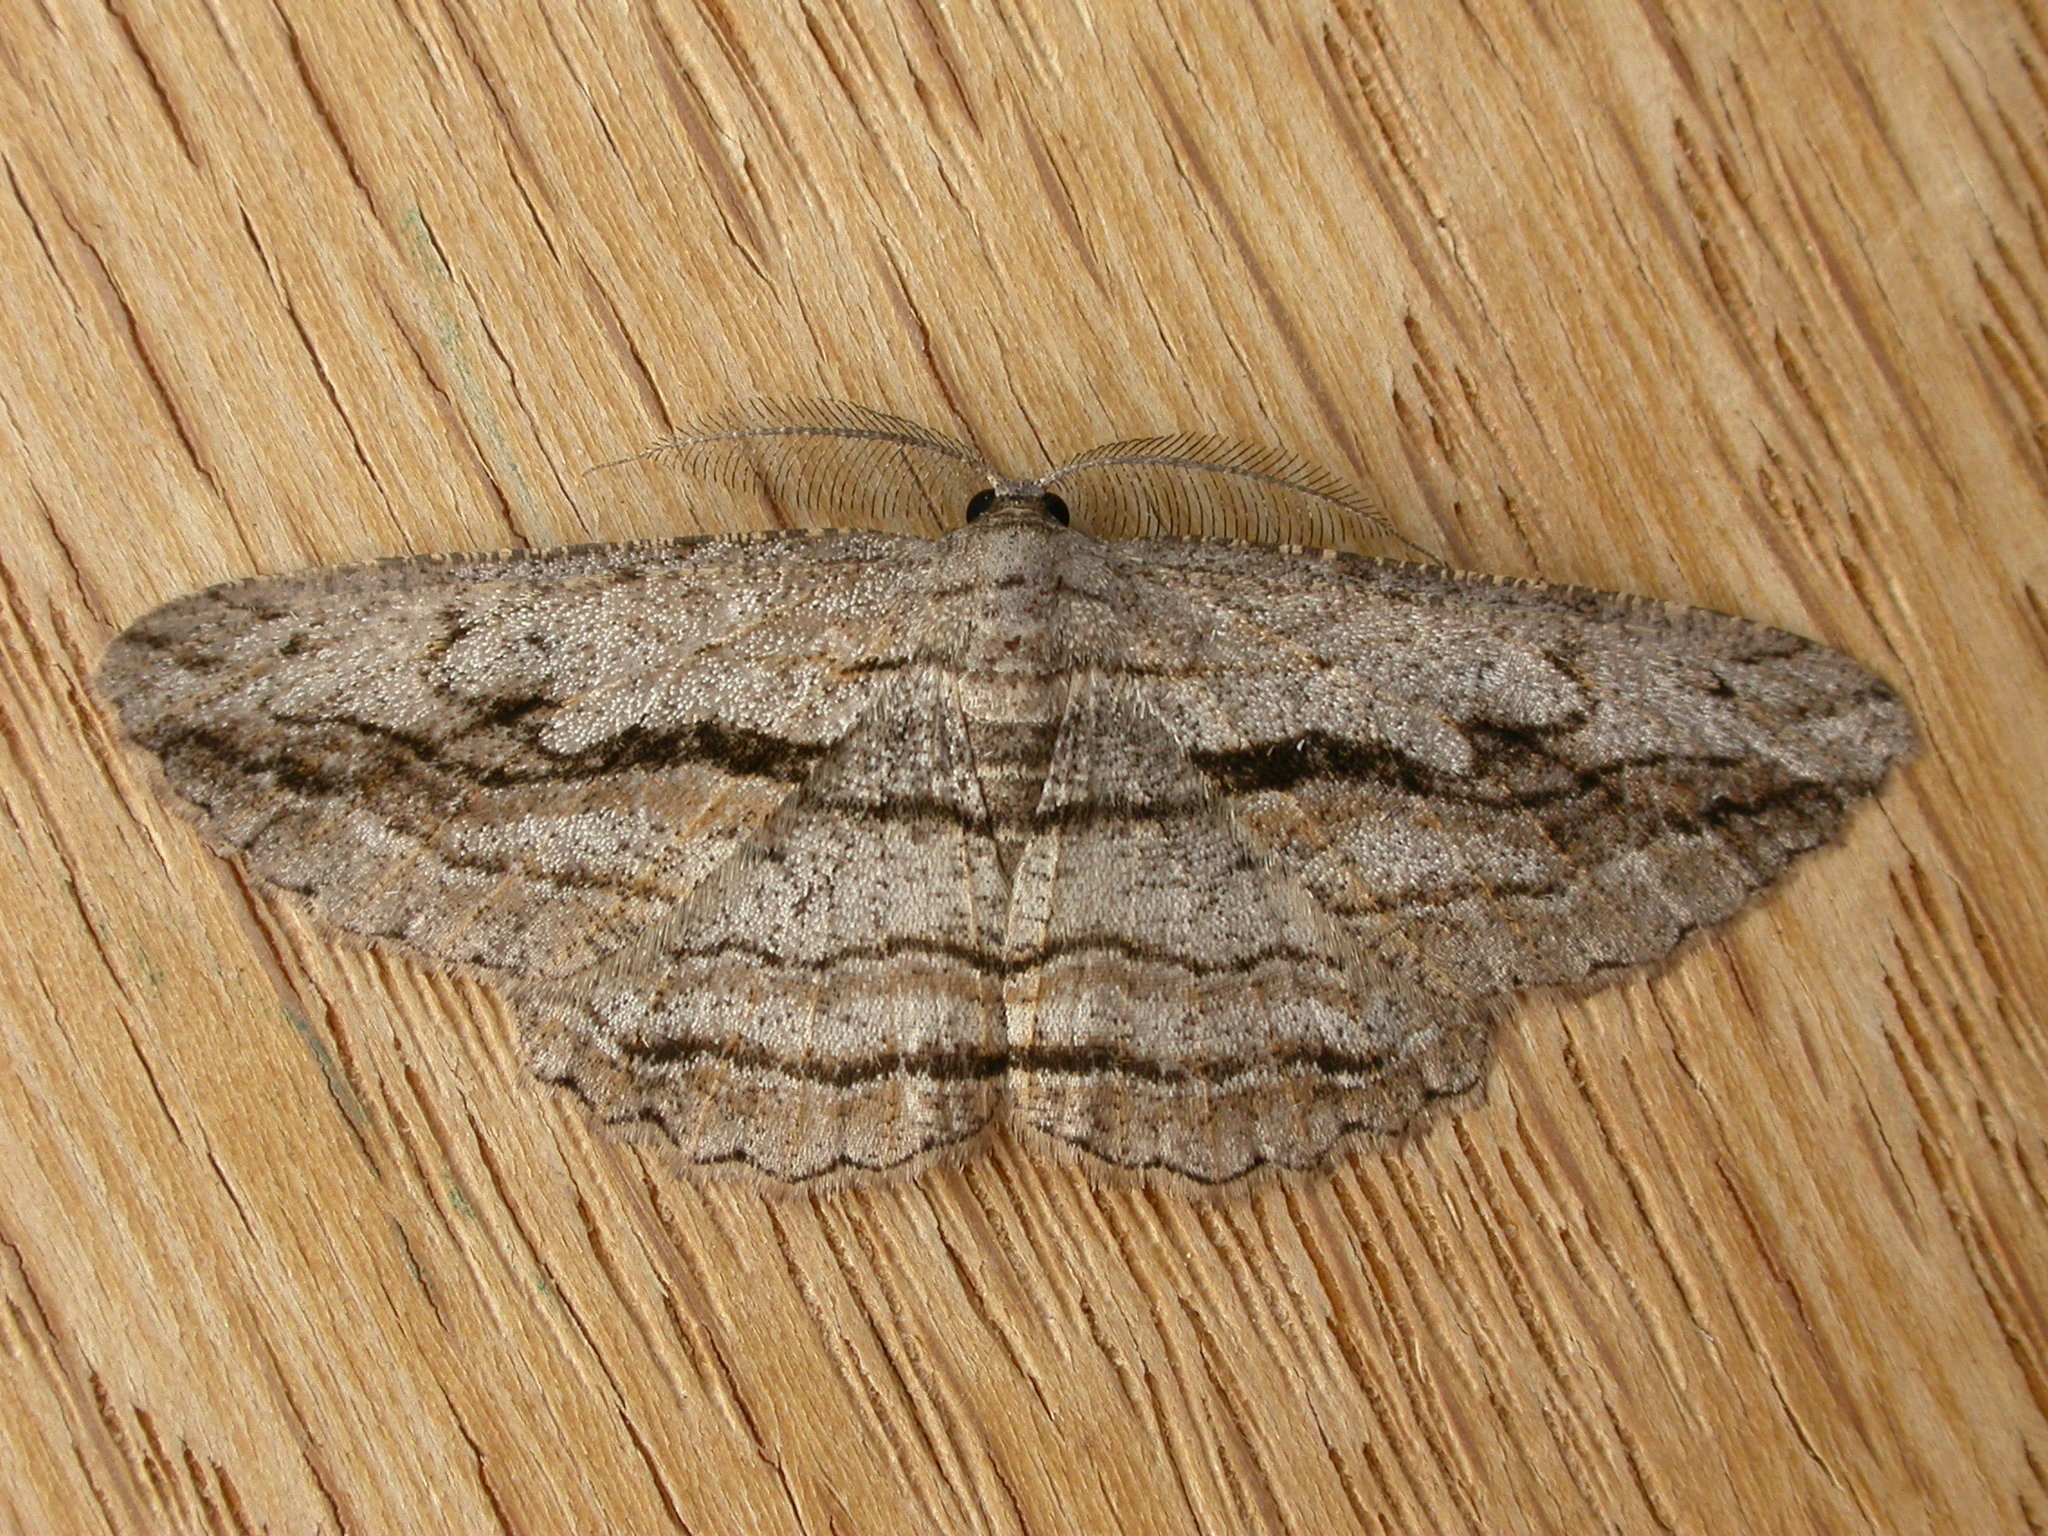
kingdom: Animalia
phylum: Arthropoda
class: Insecta
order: Lepidoptera
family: Geometridae
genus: Scioglyptis
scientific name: Scioglyptis loxographa
